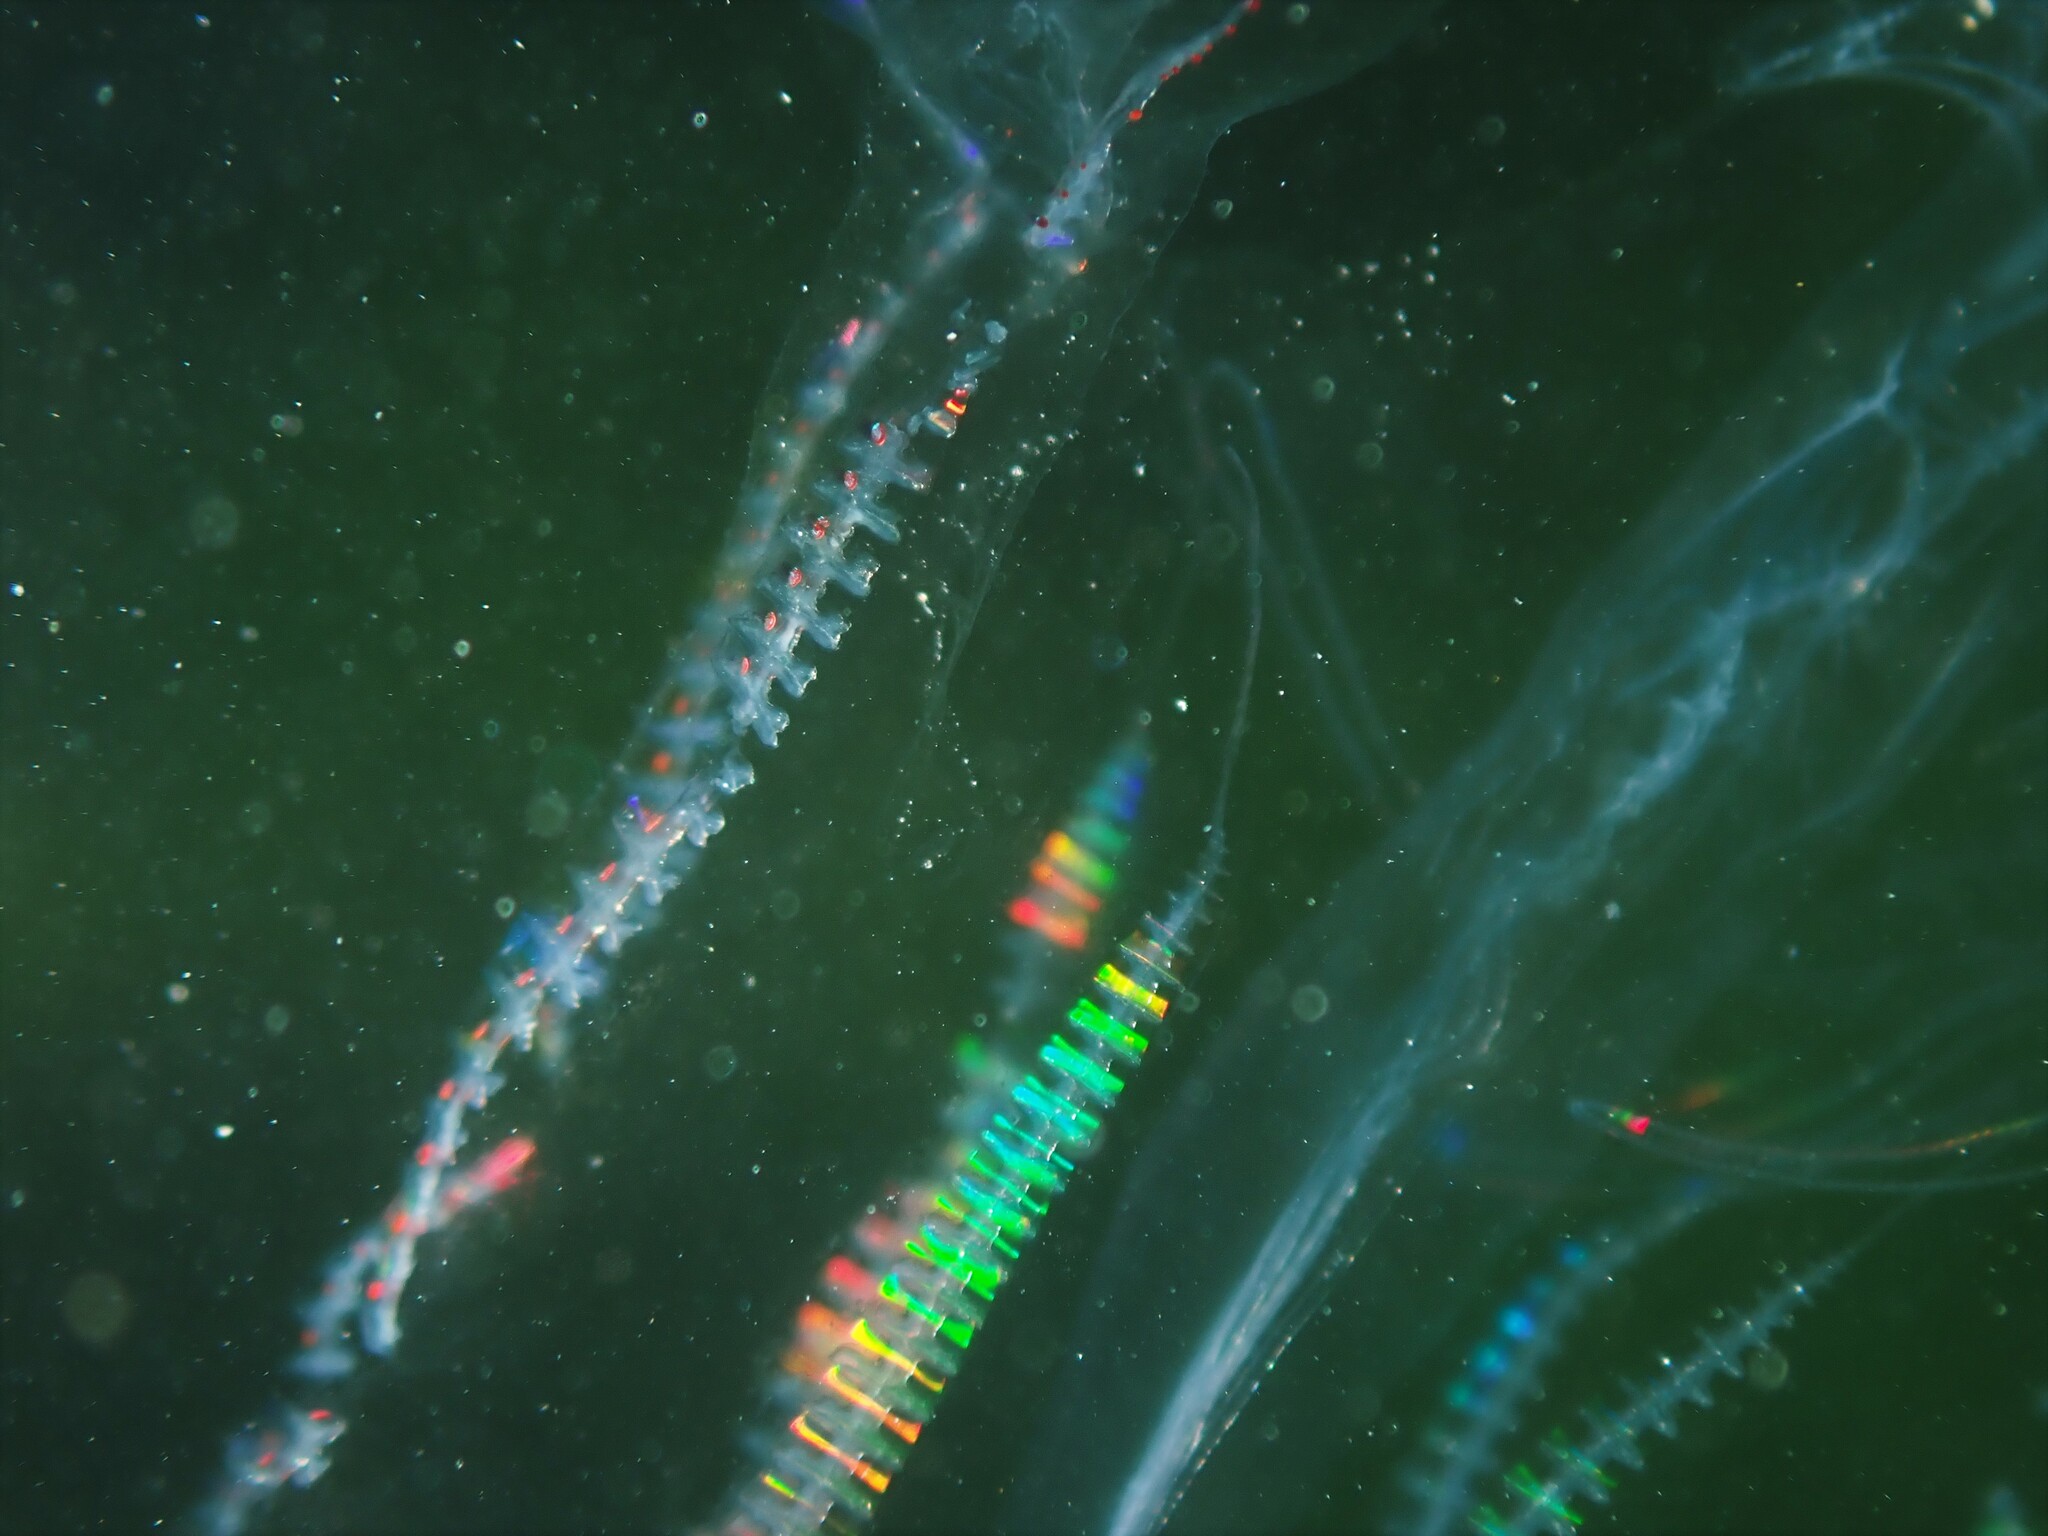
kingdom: Animalia
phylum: Ctenophora
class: Tentaculata
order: Lobata
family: Eurhamphaeidae
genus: Eurhamphaea
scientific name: Eurhamphaea vexilligera
